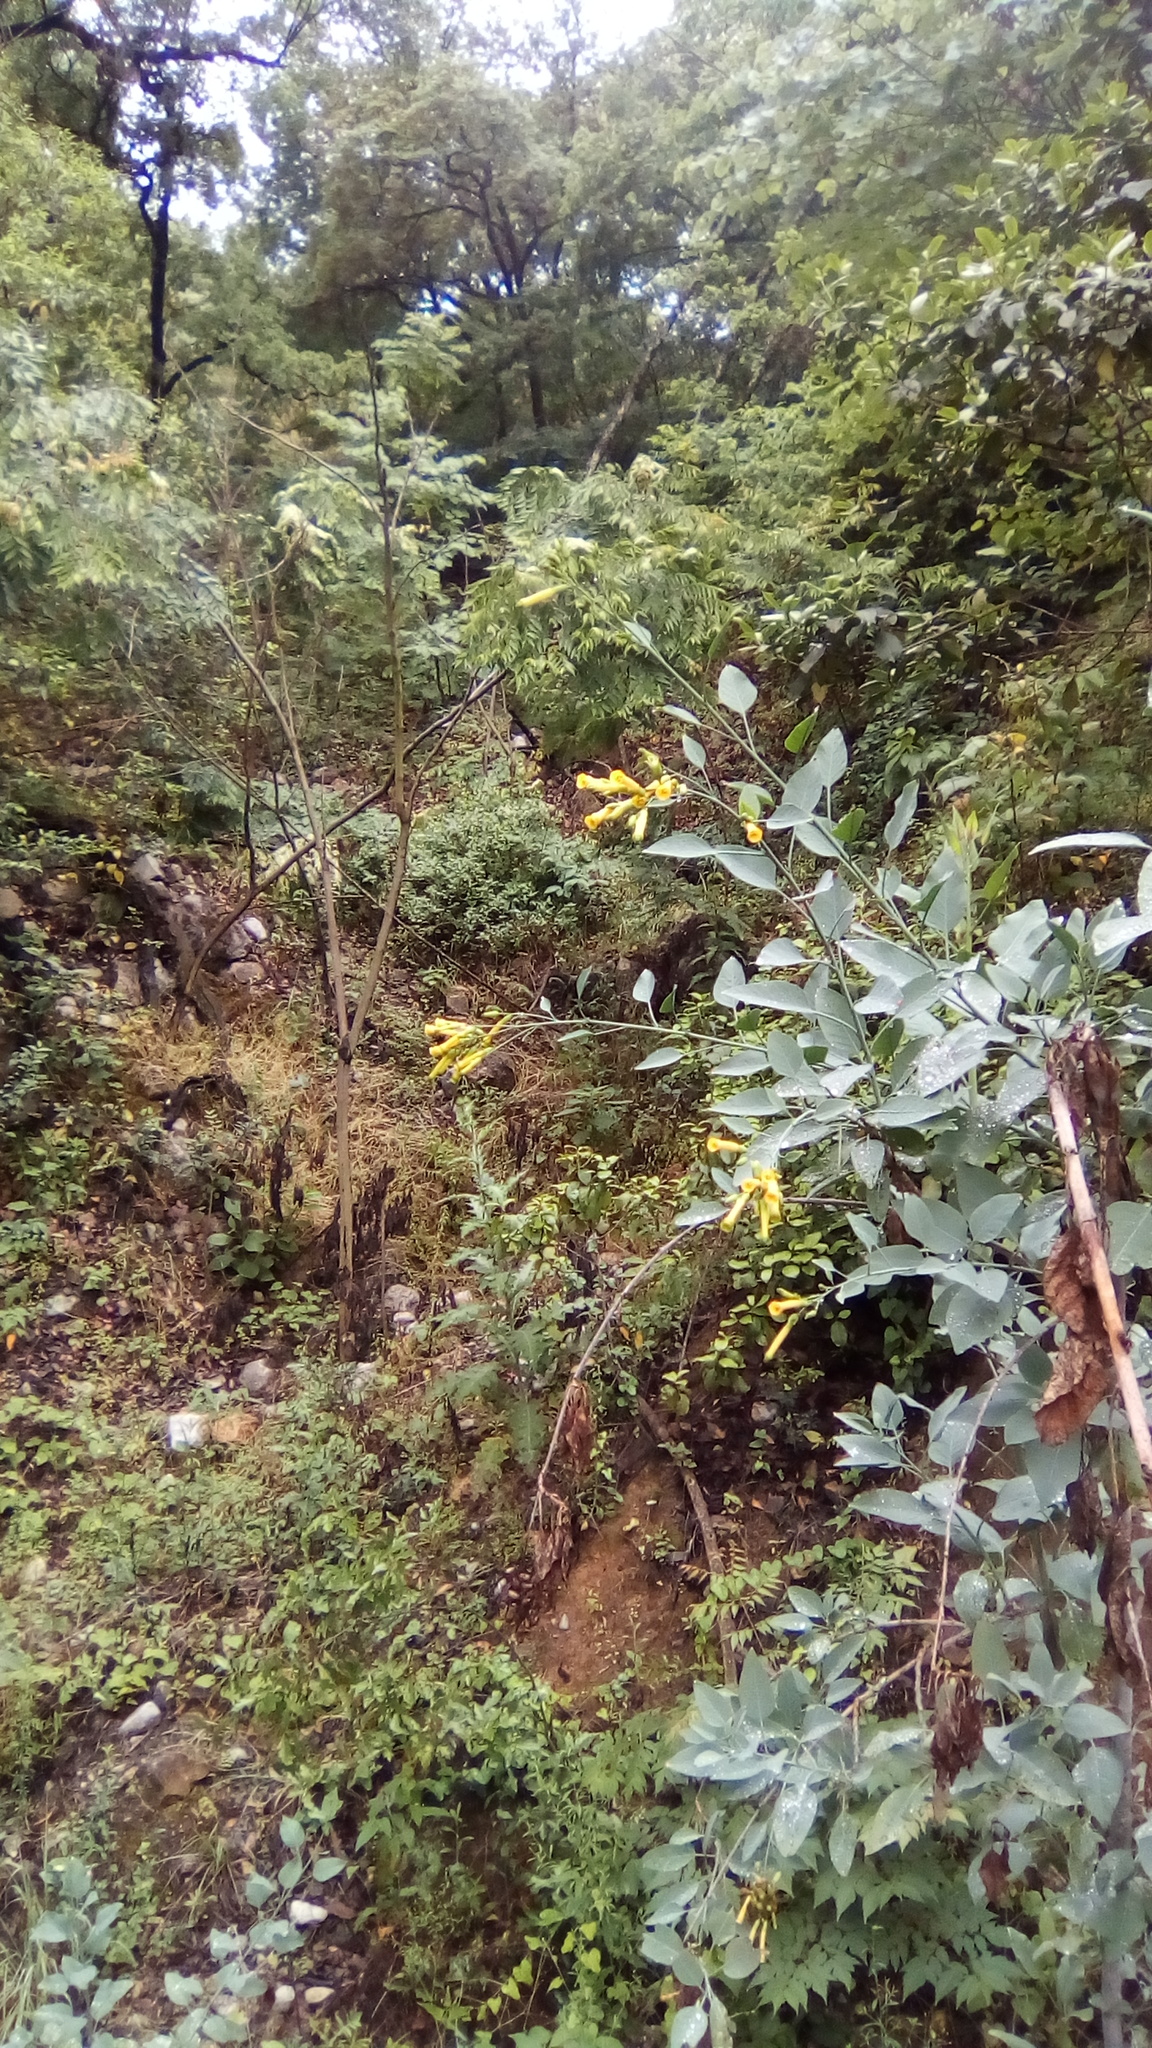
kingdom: Plantae
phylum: Tracheophyta
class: Magnoliopsida
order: Solanales
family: Solanaceae
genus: Nicotiana
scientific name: Nicotiana glauca
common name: Tree tobacco
